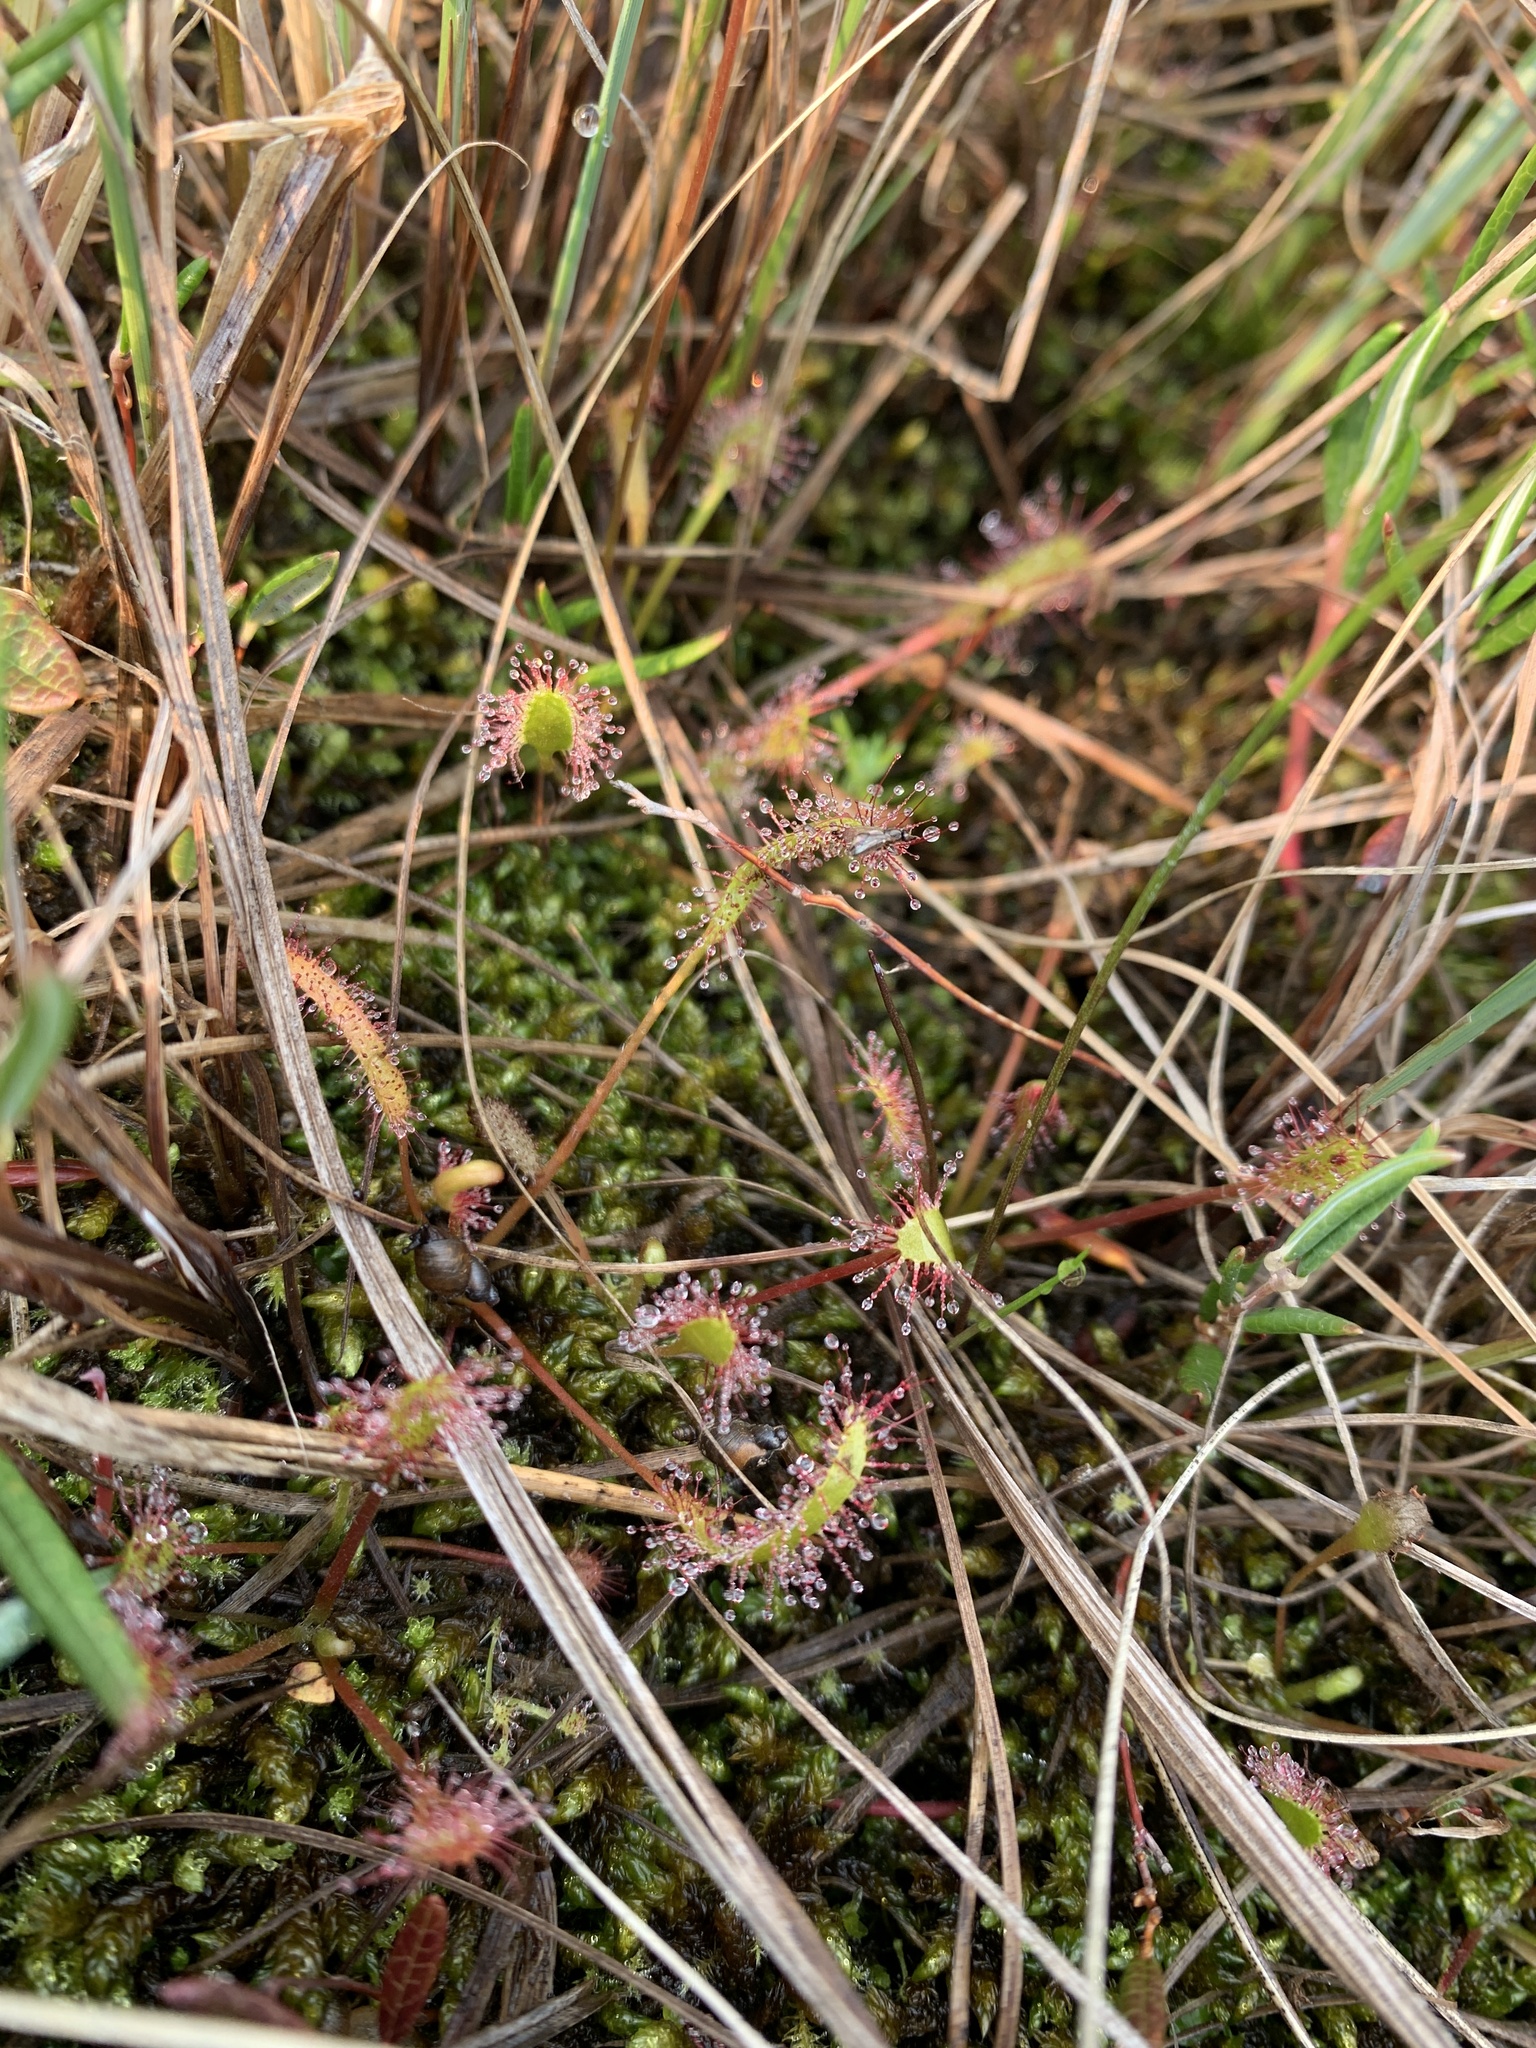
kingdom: Plantae
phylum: Tracheophyta
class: Magnoliopsida
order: Caryophyllales
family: Droseraceae
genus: Drosera
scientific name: Drosera linearis
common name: Linear-leaved sundew
